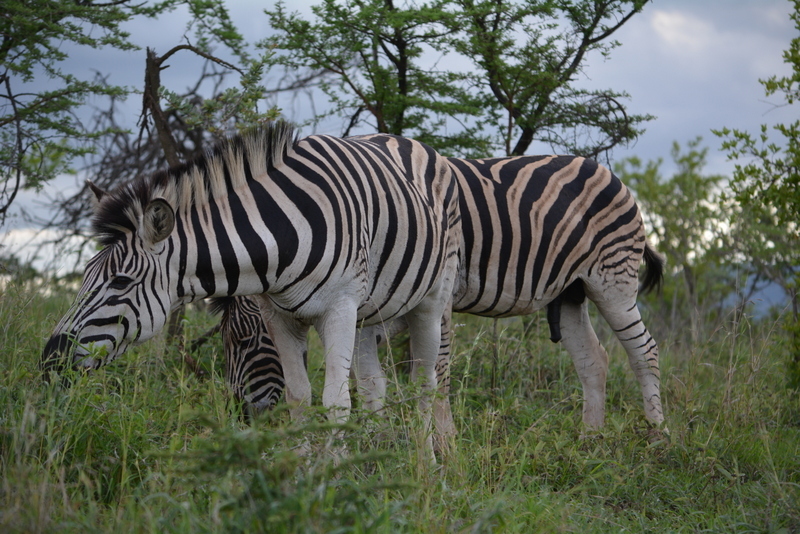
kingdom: Animalia
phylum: Chordata
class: Mammalia
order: Perissodactyla
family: Equidae
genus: Equus
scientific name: Equus quagga
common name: Plains zebra
